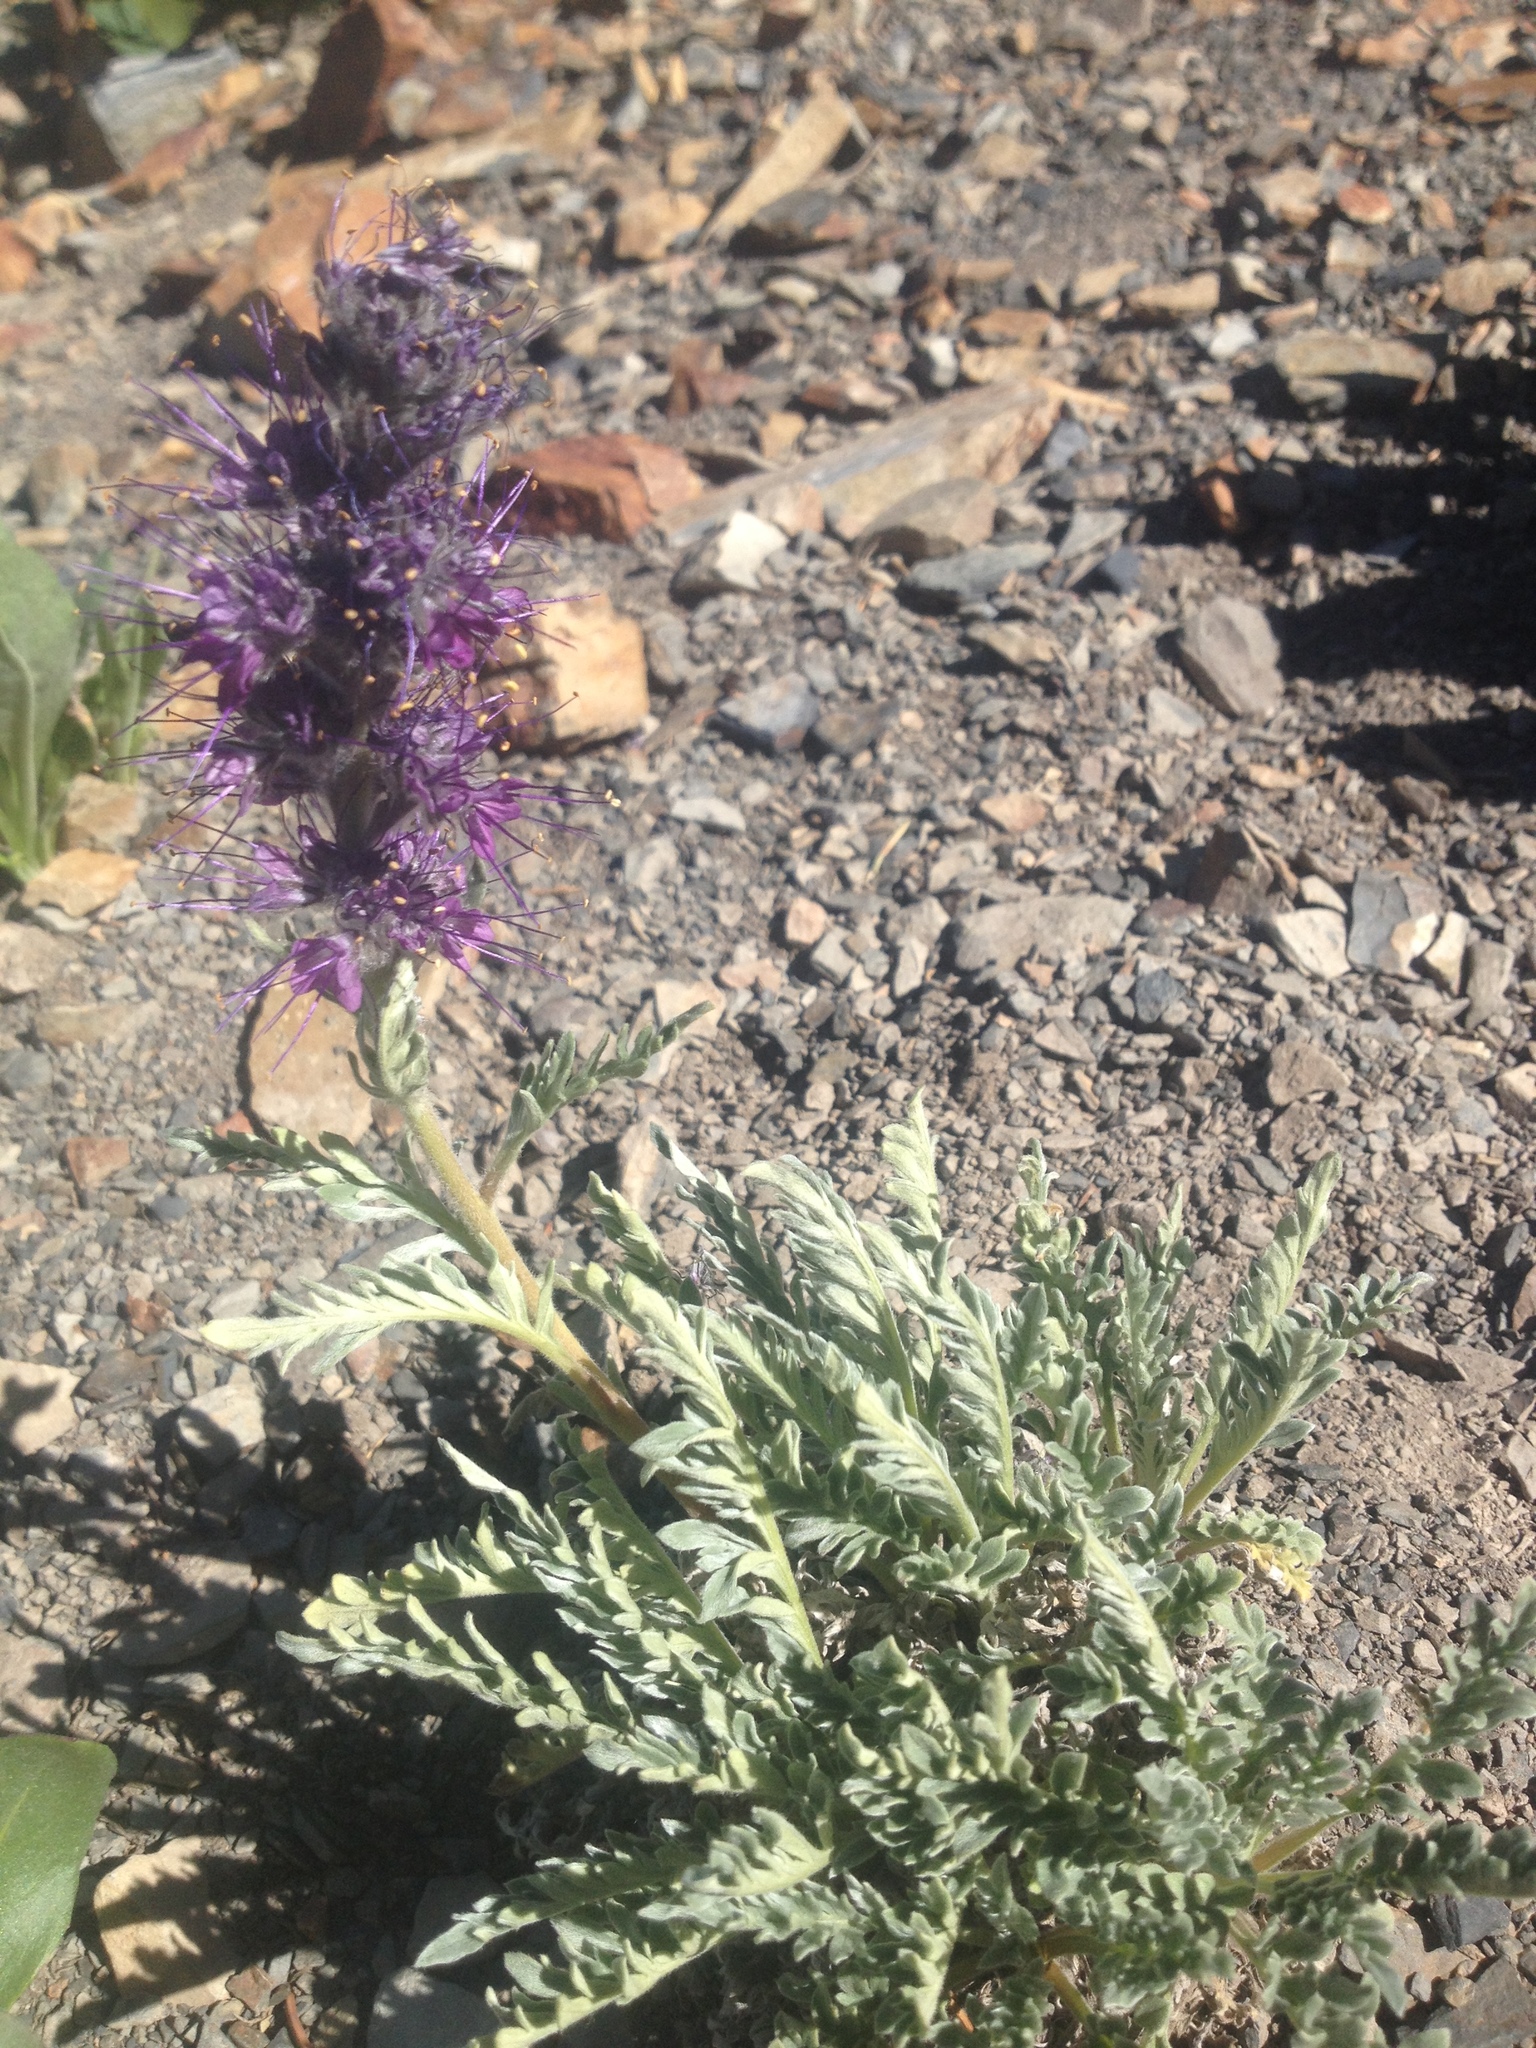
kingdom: Plantae
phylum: Tracheophyta
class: Magnoliopsida
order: Ranunculales
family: Ranunculaceae
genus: Aquilegia
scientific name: Aquilegia coerulea
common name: Rocky mountain columbine
